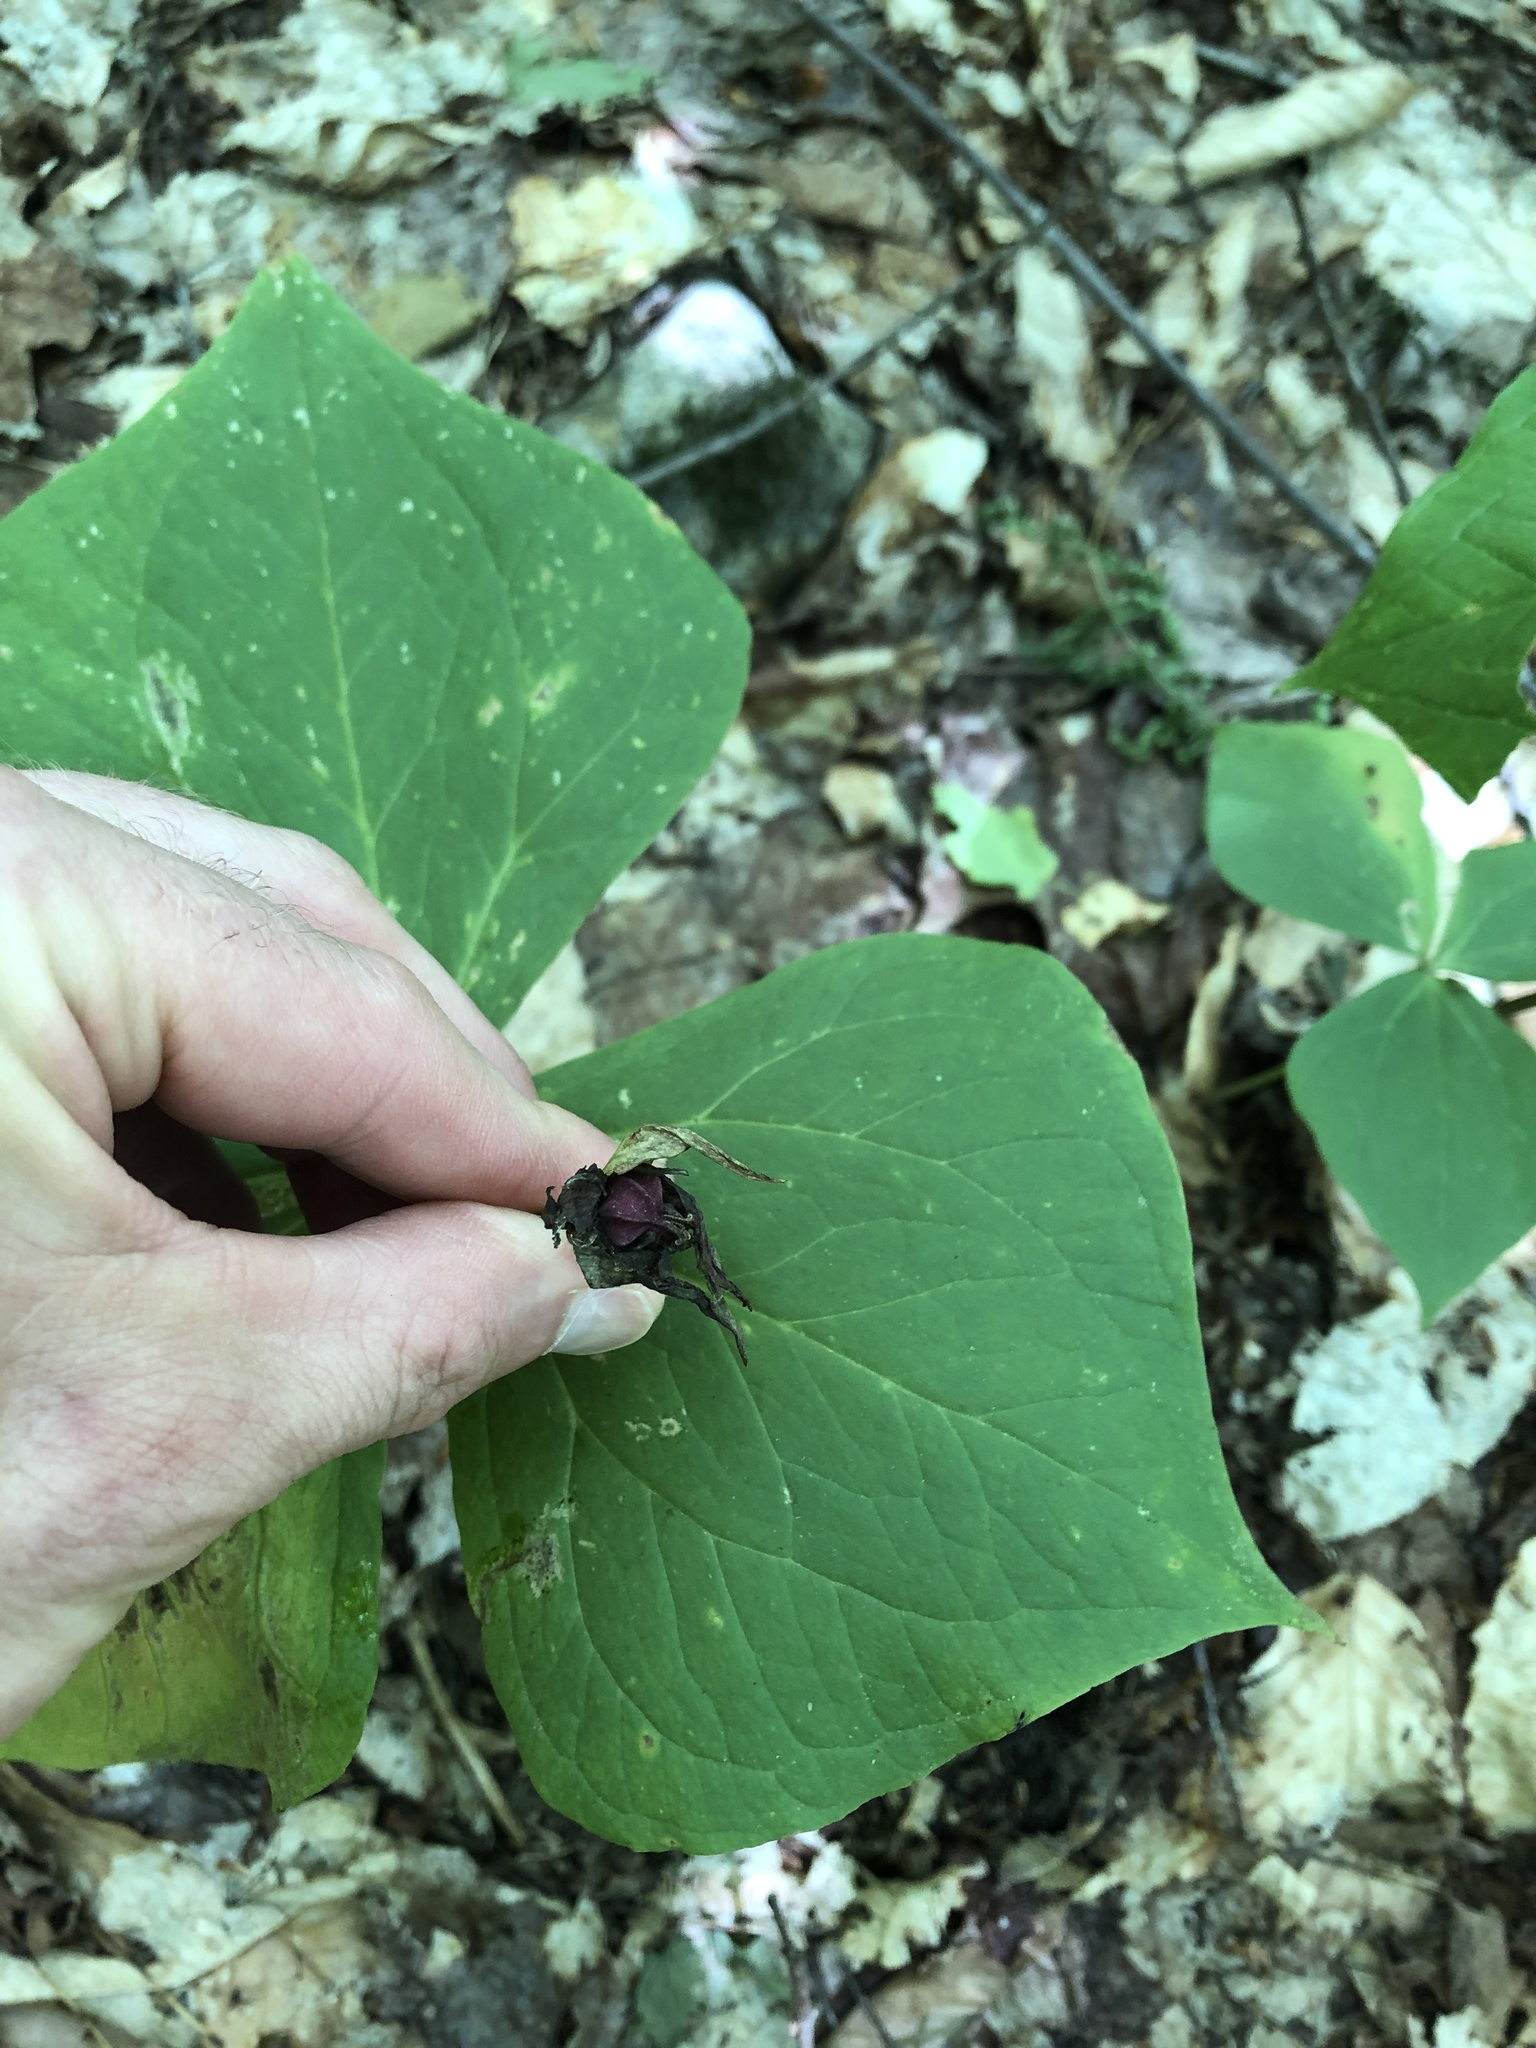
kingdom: Plantae
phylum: Tracheophyta
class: Liliopsida
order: Liliales
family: Melanthiaceae
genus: Trillium
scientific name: Trillium erectum
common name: Purple trillium
